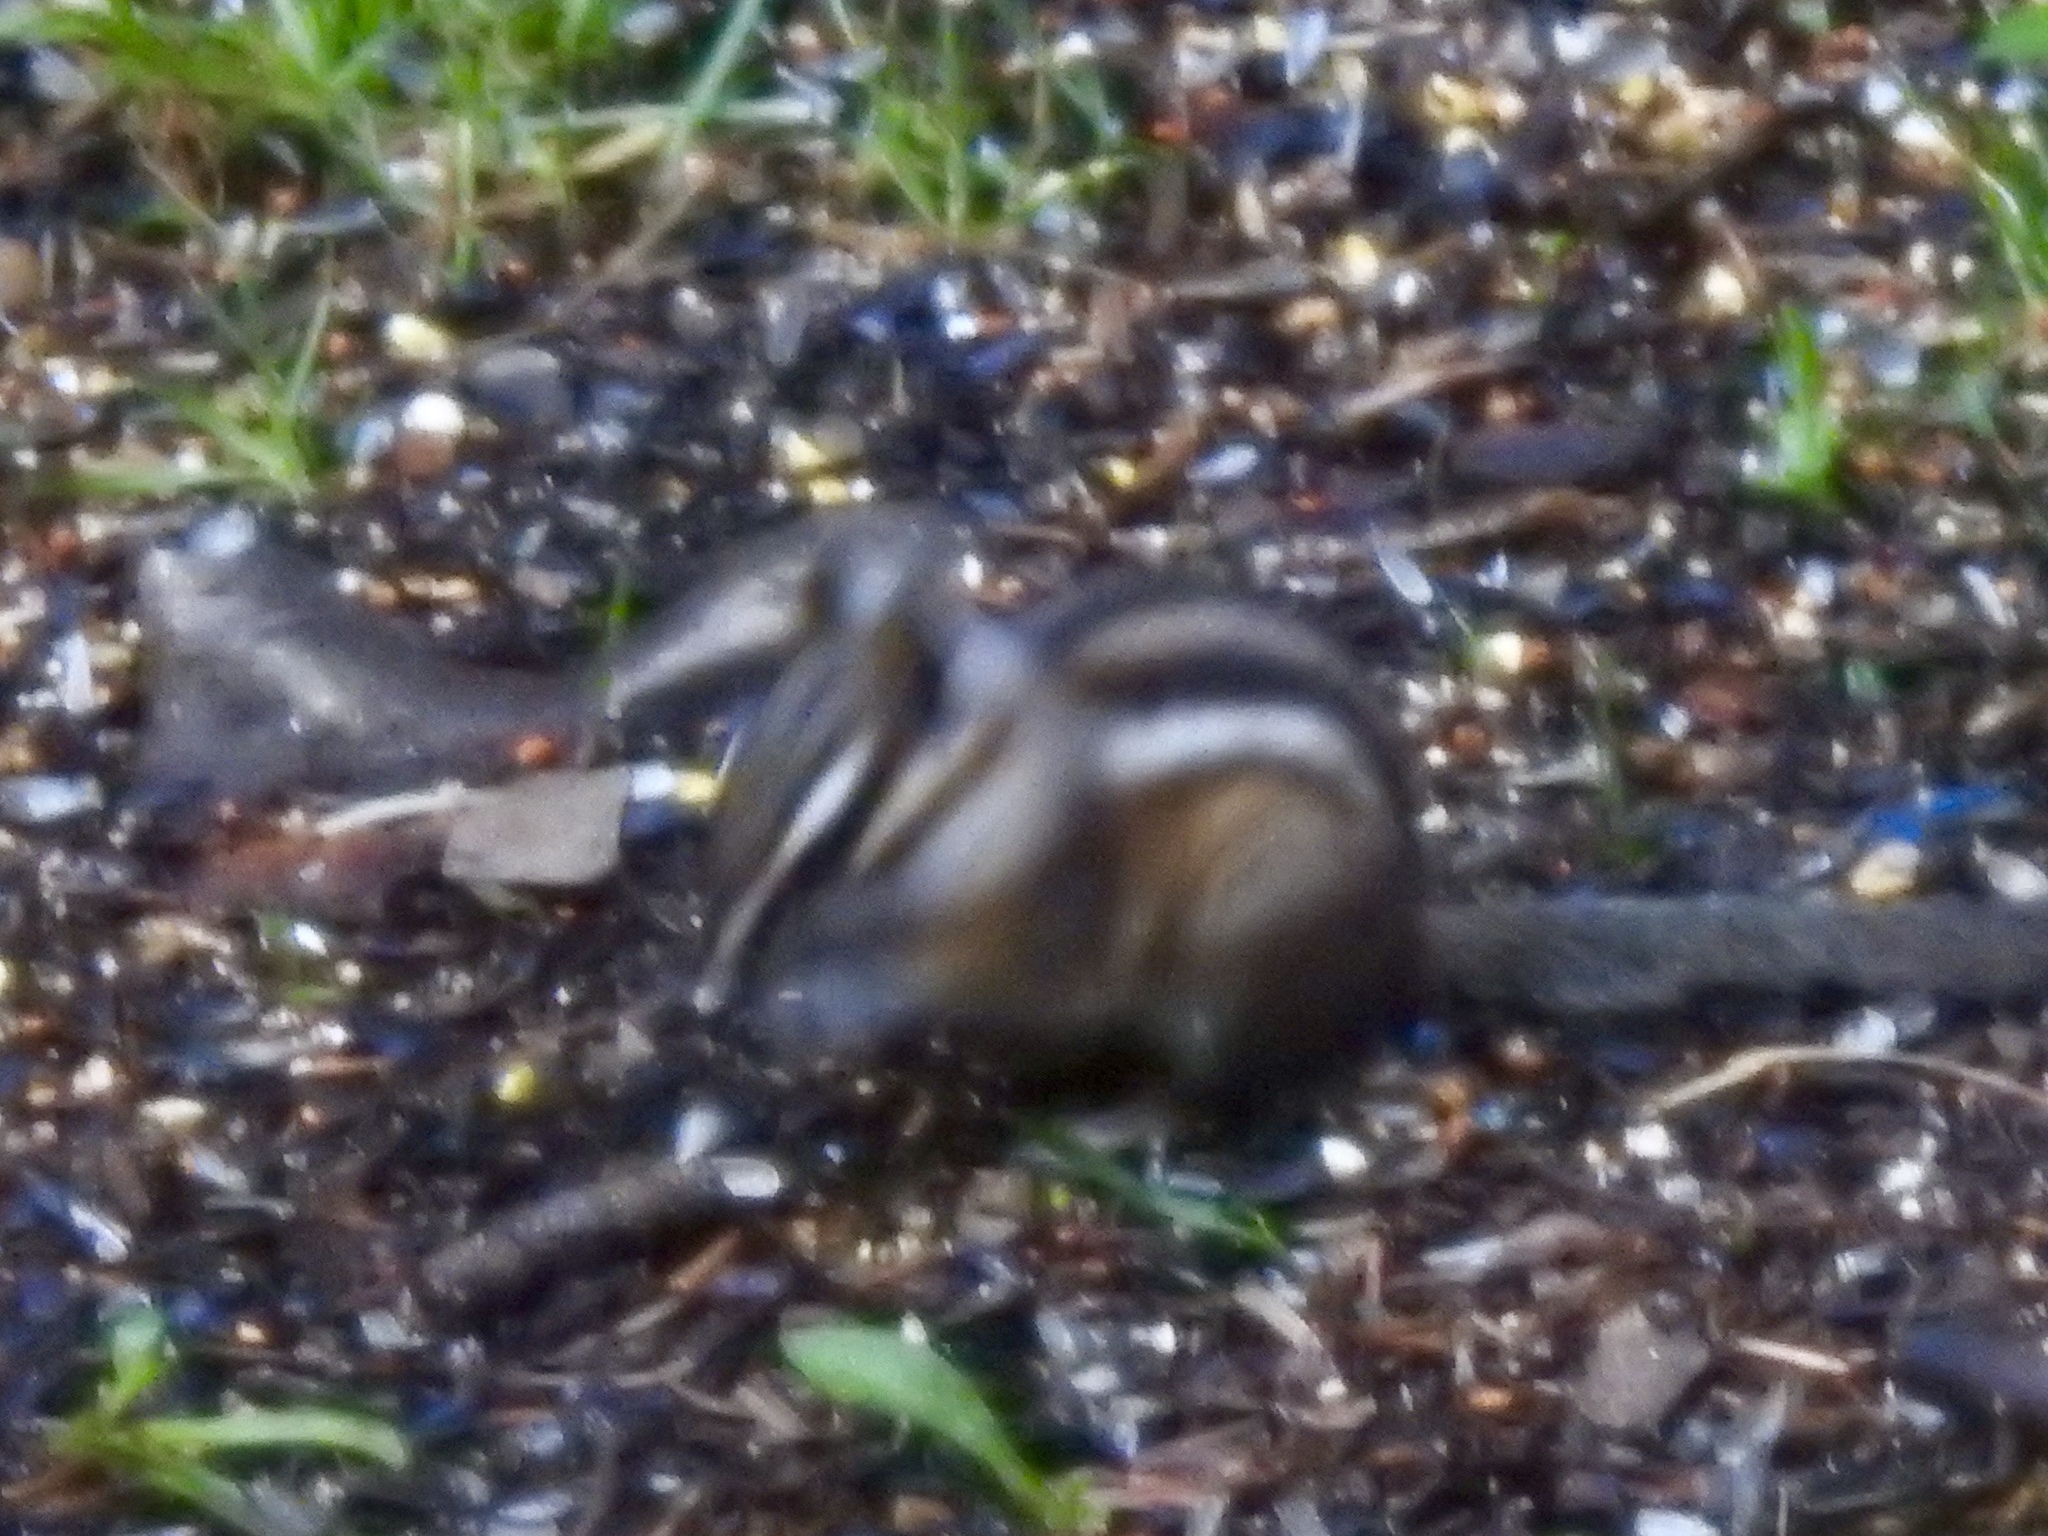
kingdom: Animalia
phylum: Chordata
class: Mammalia
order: Rodentia
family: Sciuridae
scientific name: Sciuridae
